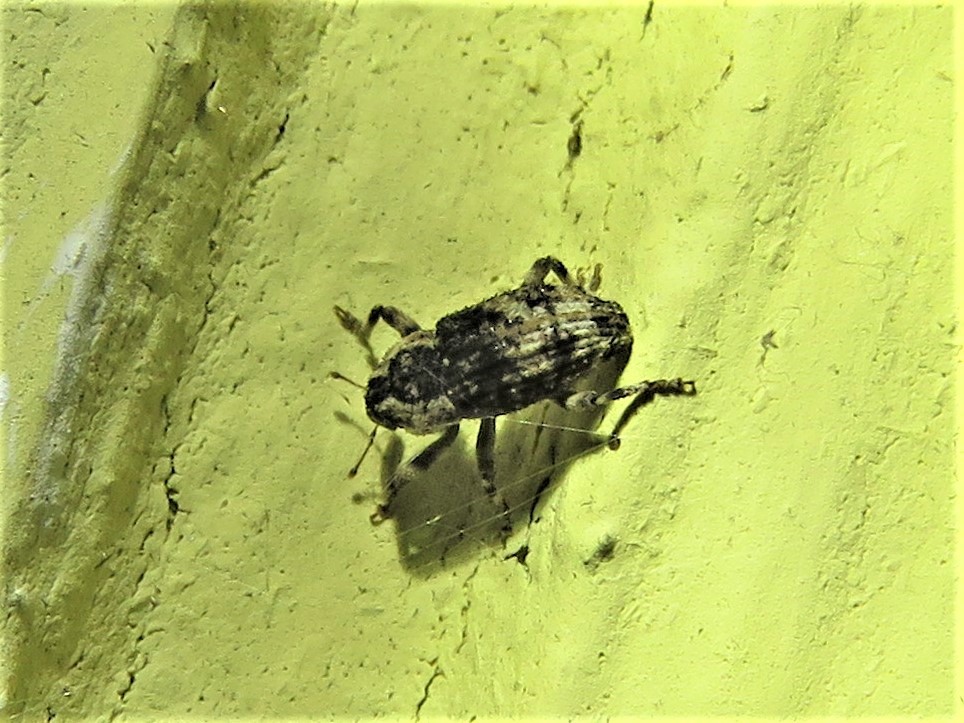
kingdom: Animalia
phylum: Arthropoda
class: Insecta
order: Coleoptera
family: Curculionidae
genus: Cophes
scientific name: Cophes fallax
